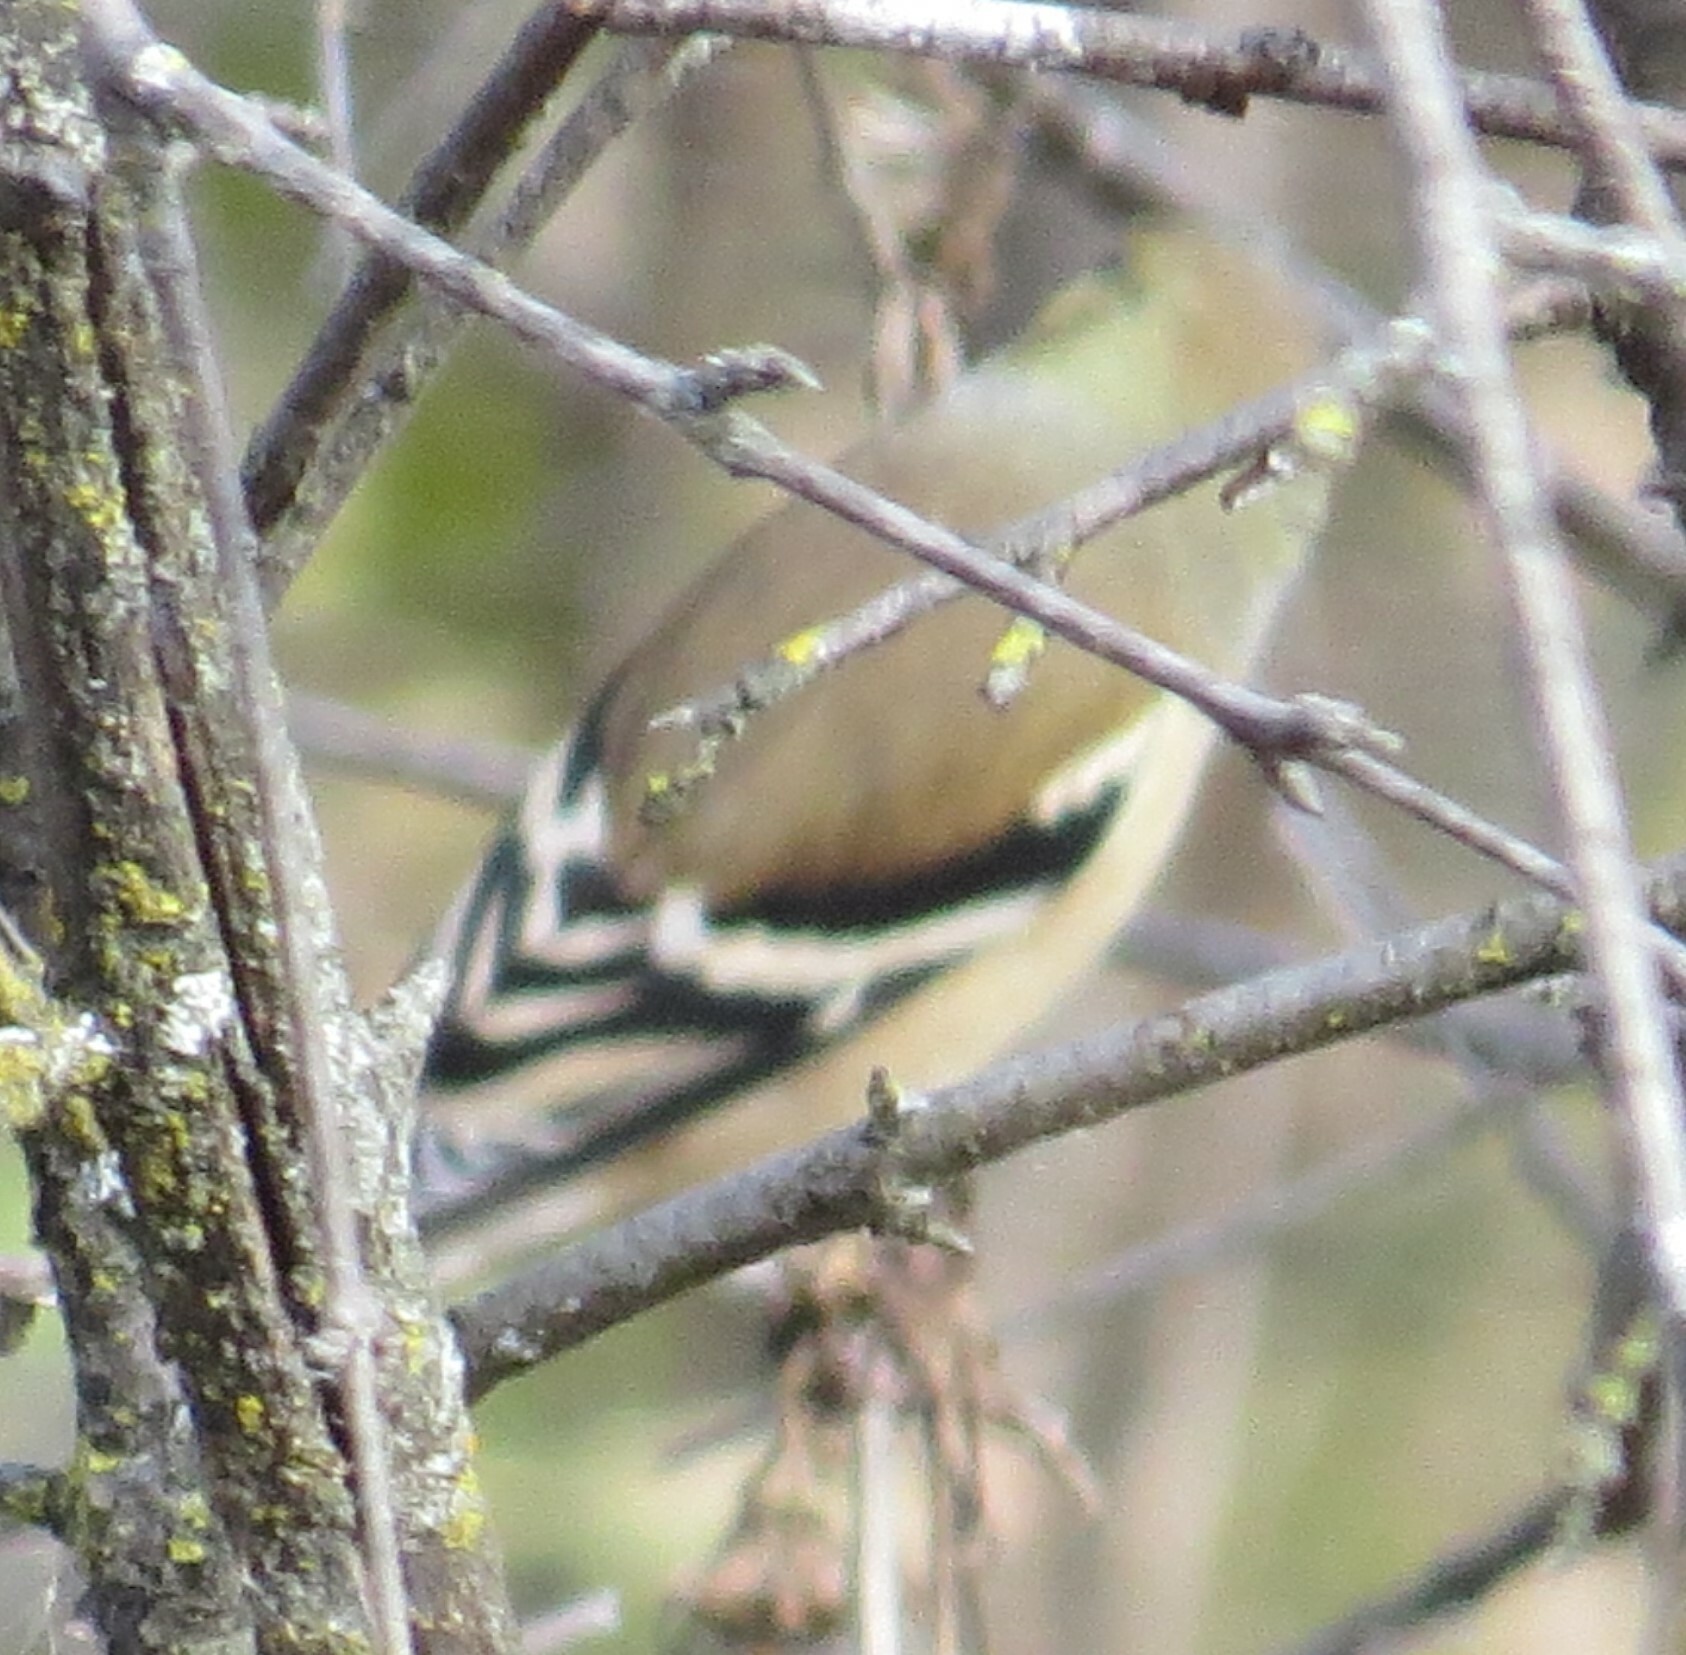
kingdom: Animalia
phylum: Chordata
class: Aves
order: Passeriformes
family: Fringillidae
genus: Spinus
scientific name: Spinus tristis
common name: American goldfinch
